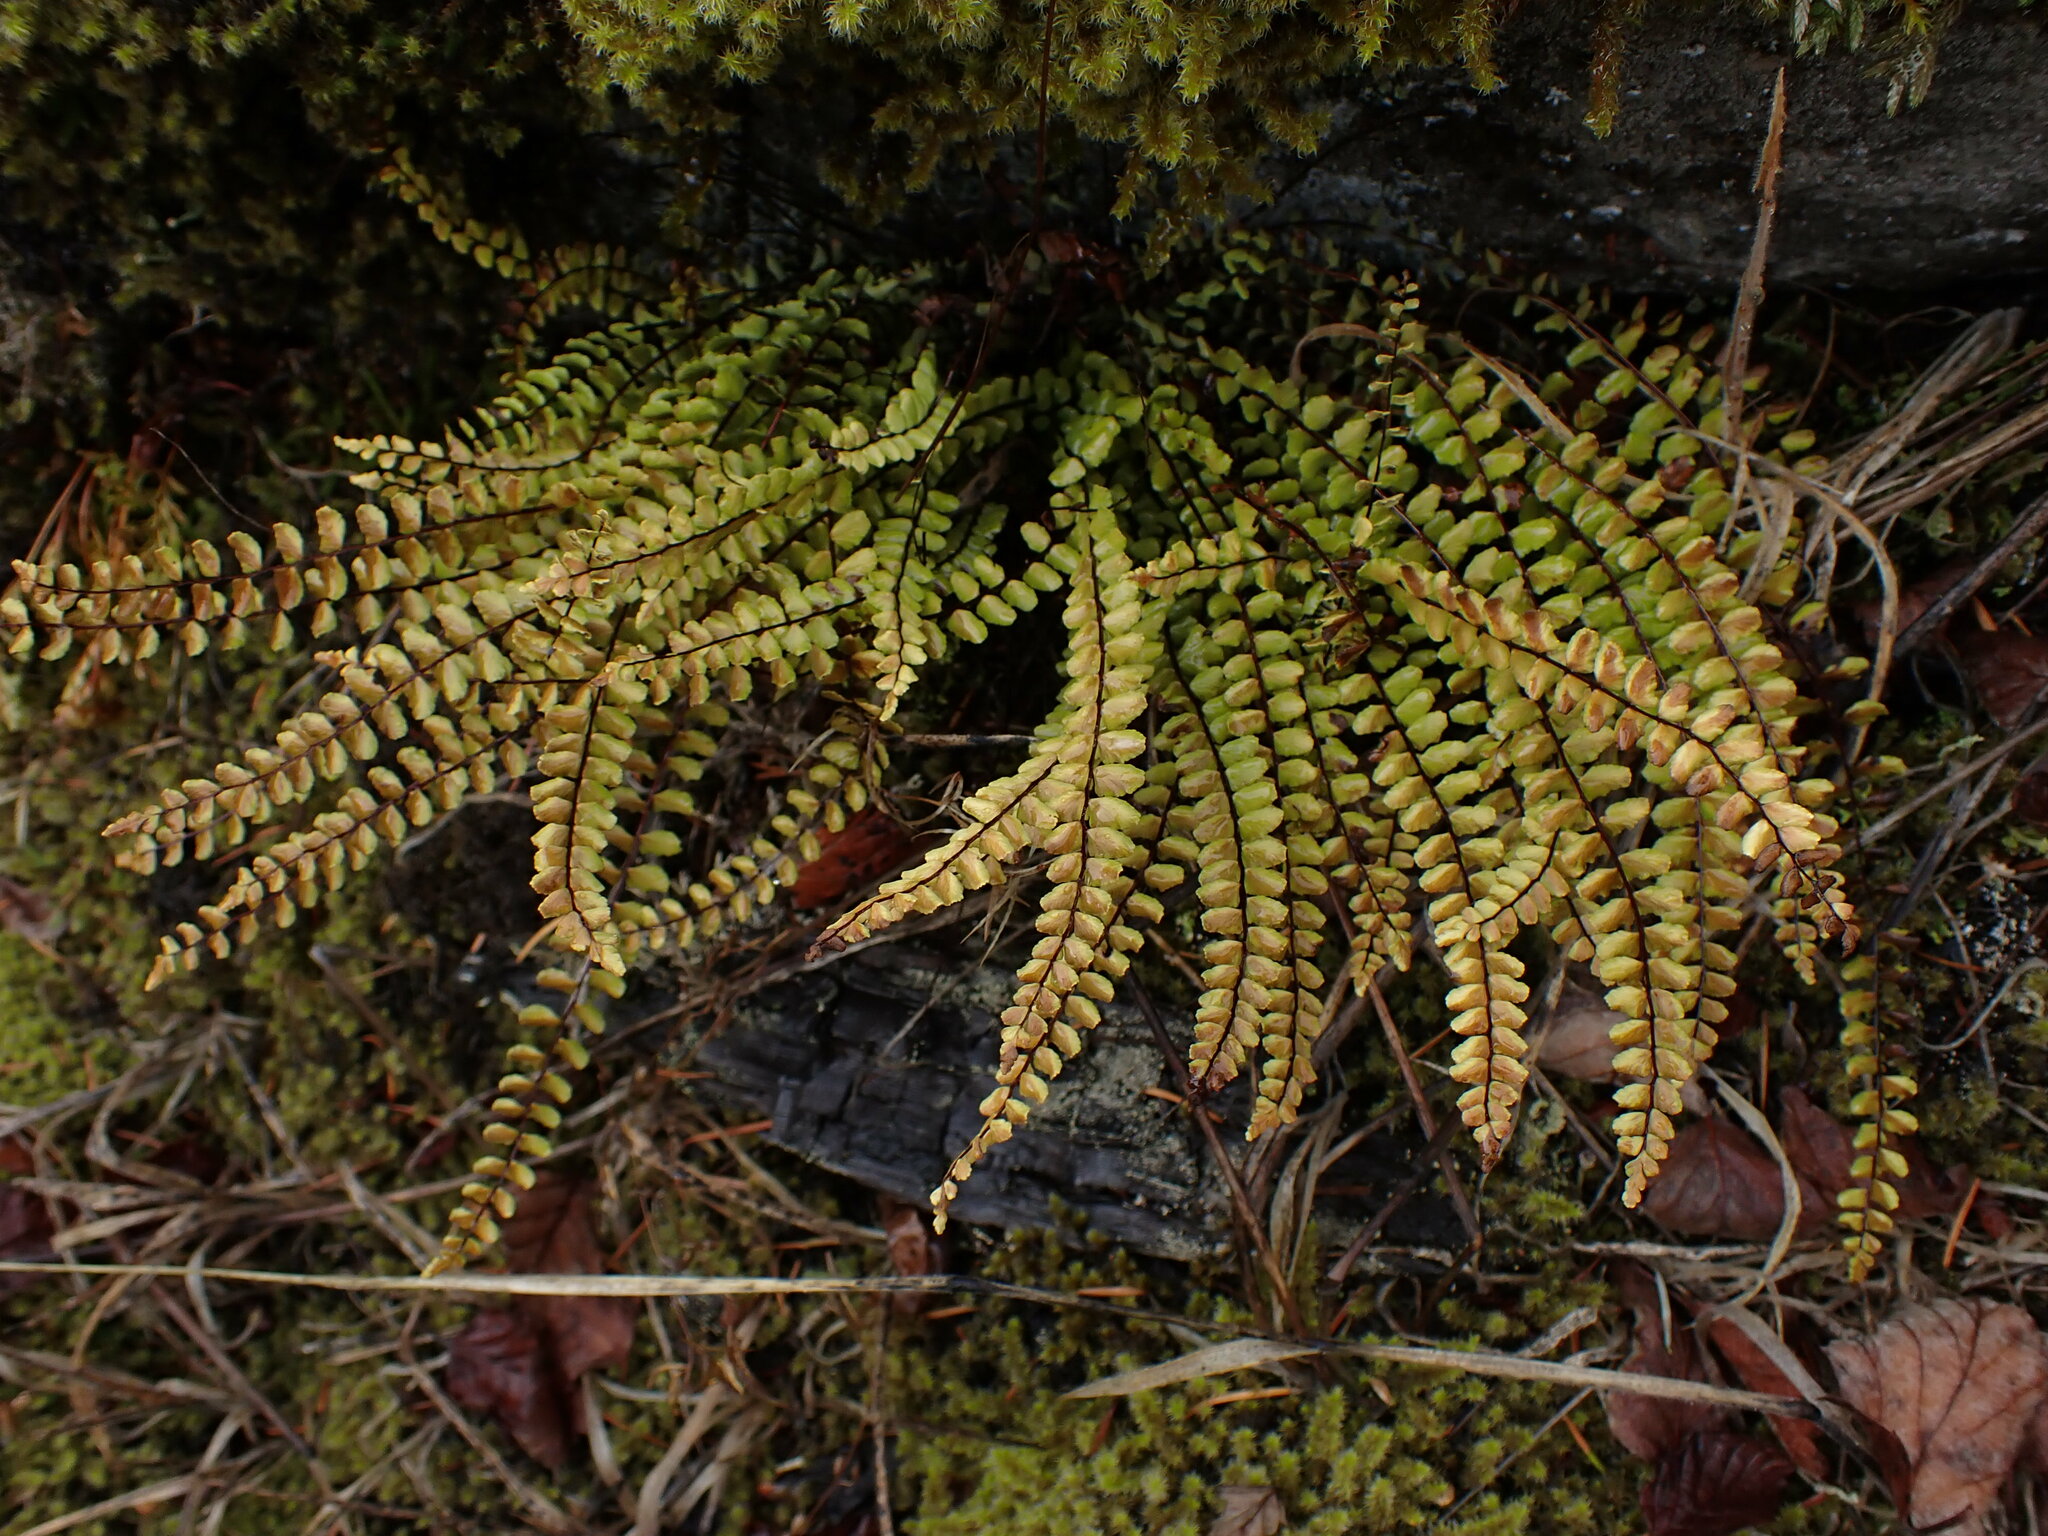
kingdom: Plantae
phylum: Tracheophyta
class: Polypodiopsida
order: Polypodiales
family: Aspleniaceae
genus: Asplenium
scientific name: Asplenium trichomanes
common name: Maidenhair spleenwort
